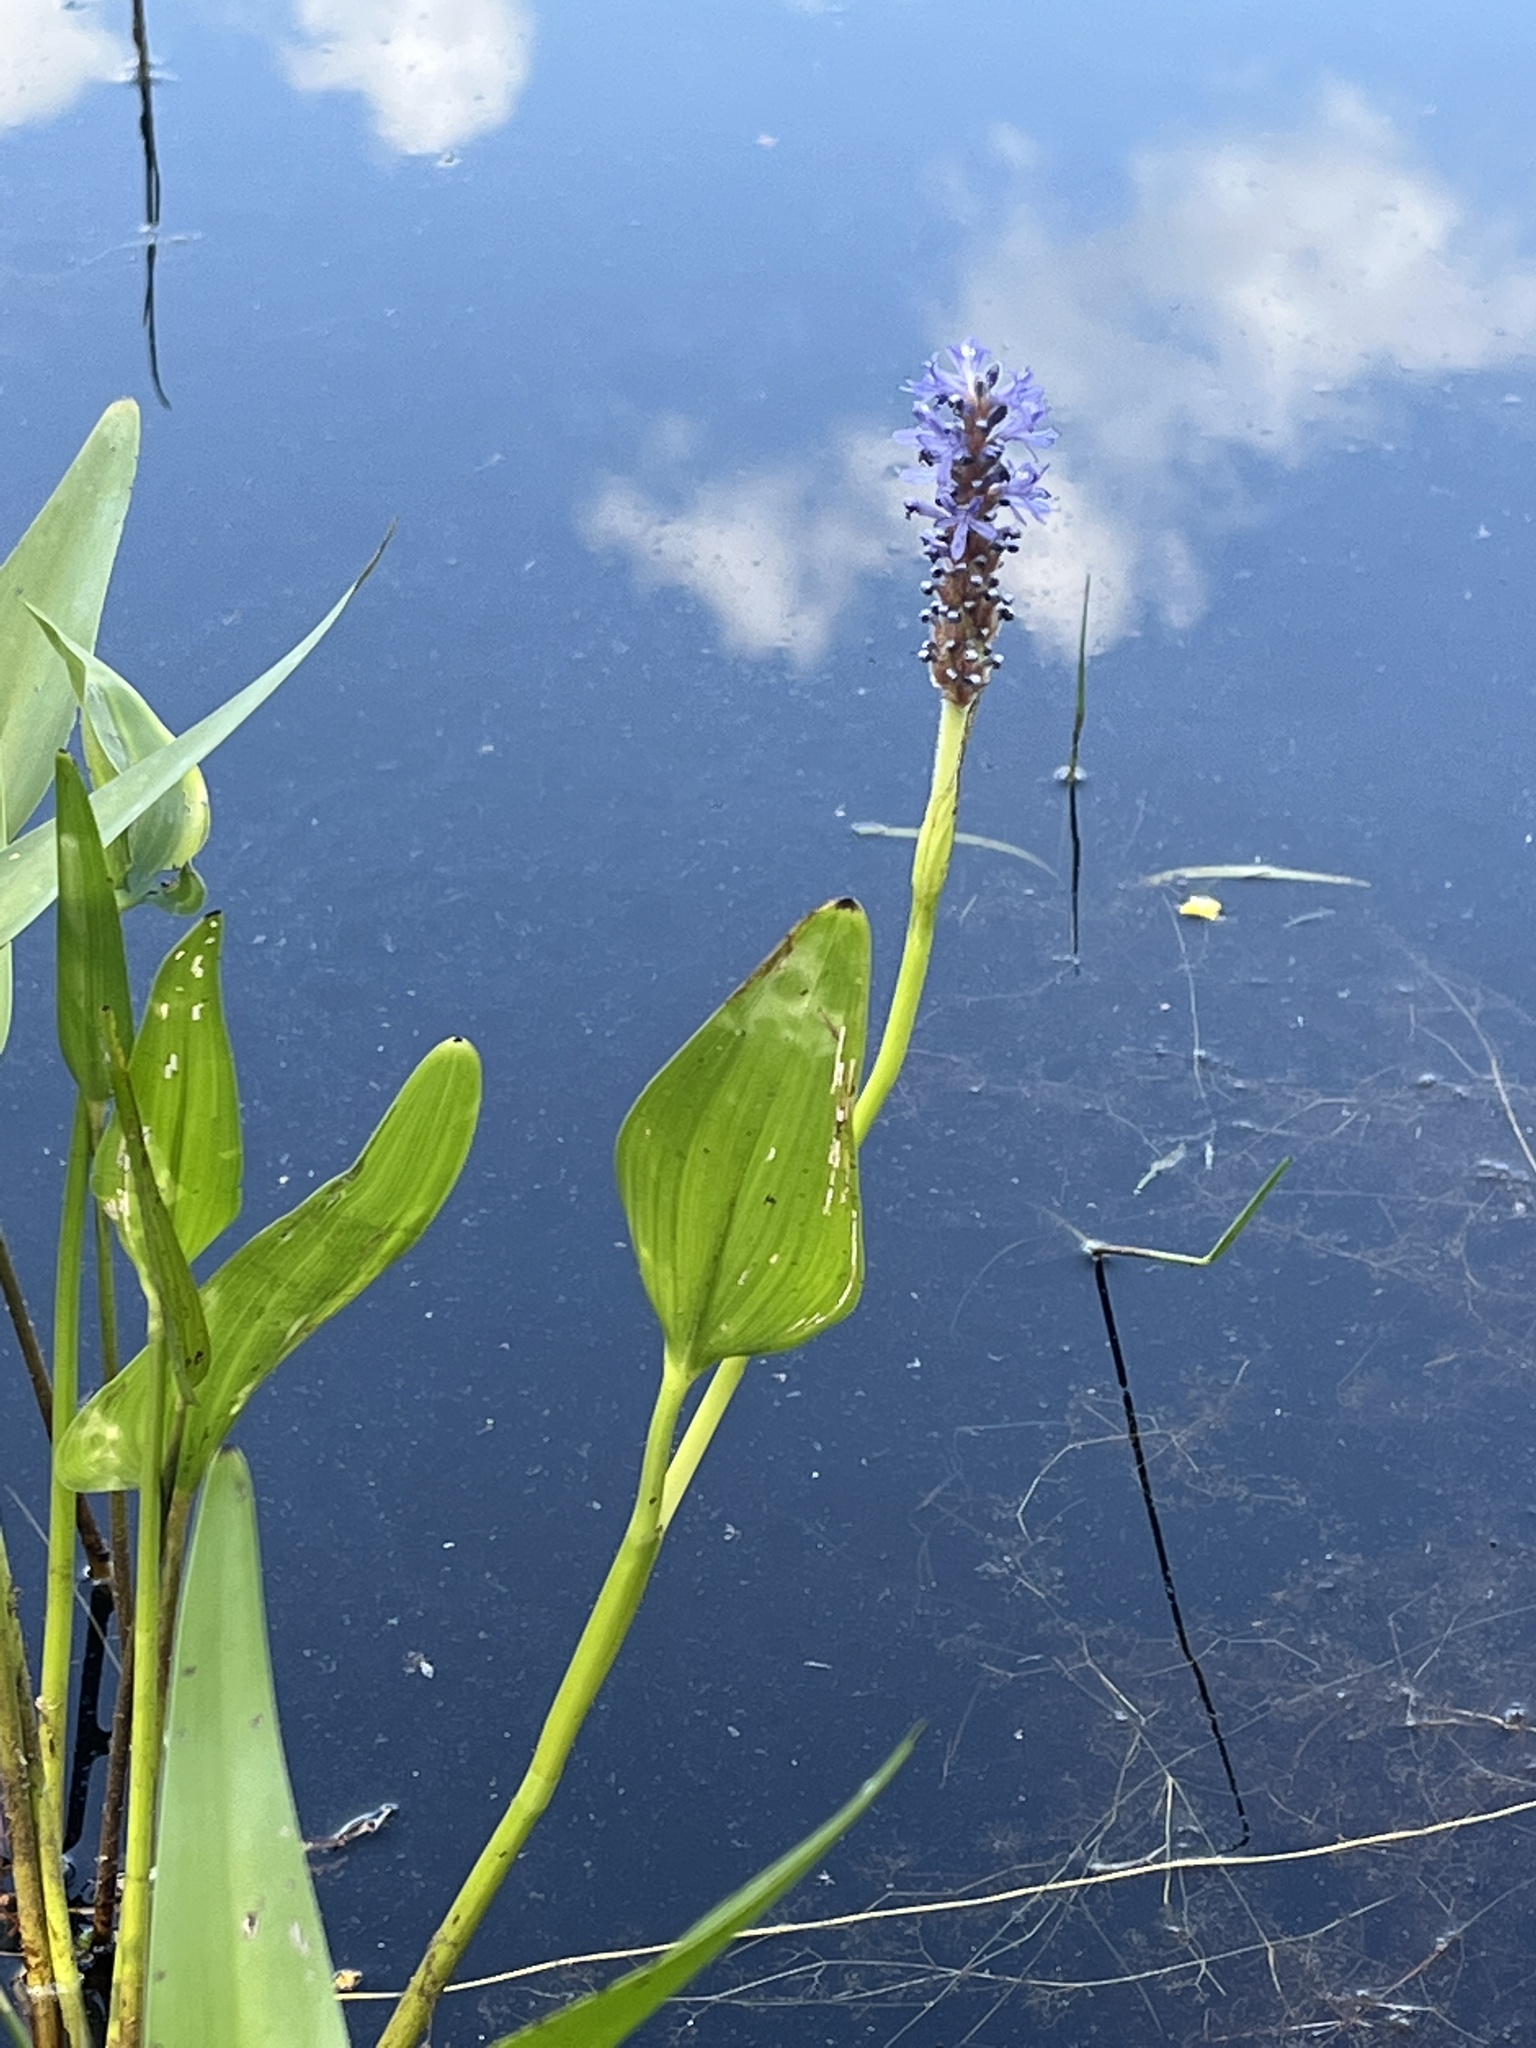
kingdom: Plantae
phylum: Tracheophyta
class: Liliopsida
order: Commelinales
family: Pontederiaceae
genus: Pontederia
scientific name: Pontederia cordata
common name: Pickerelweed
